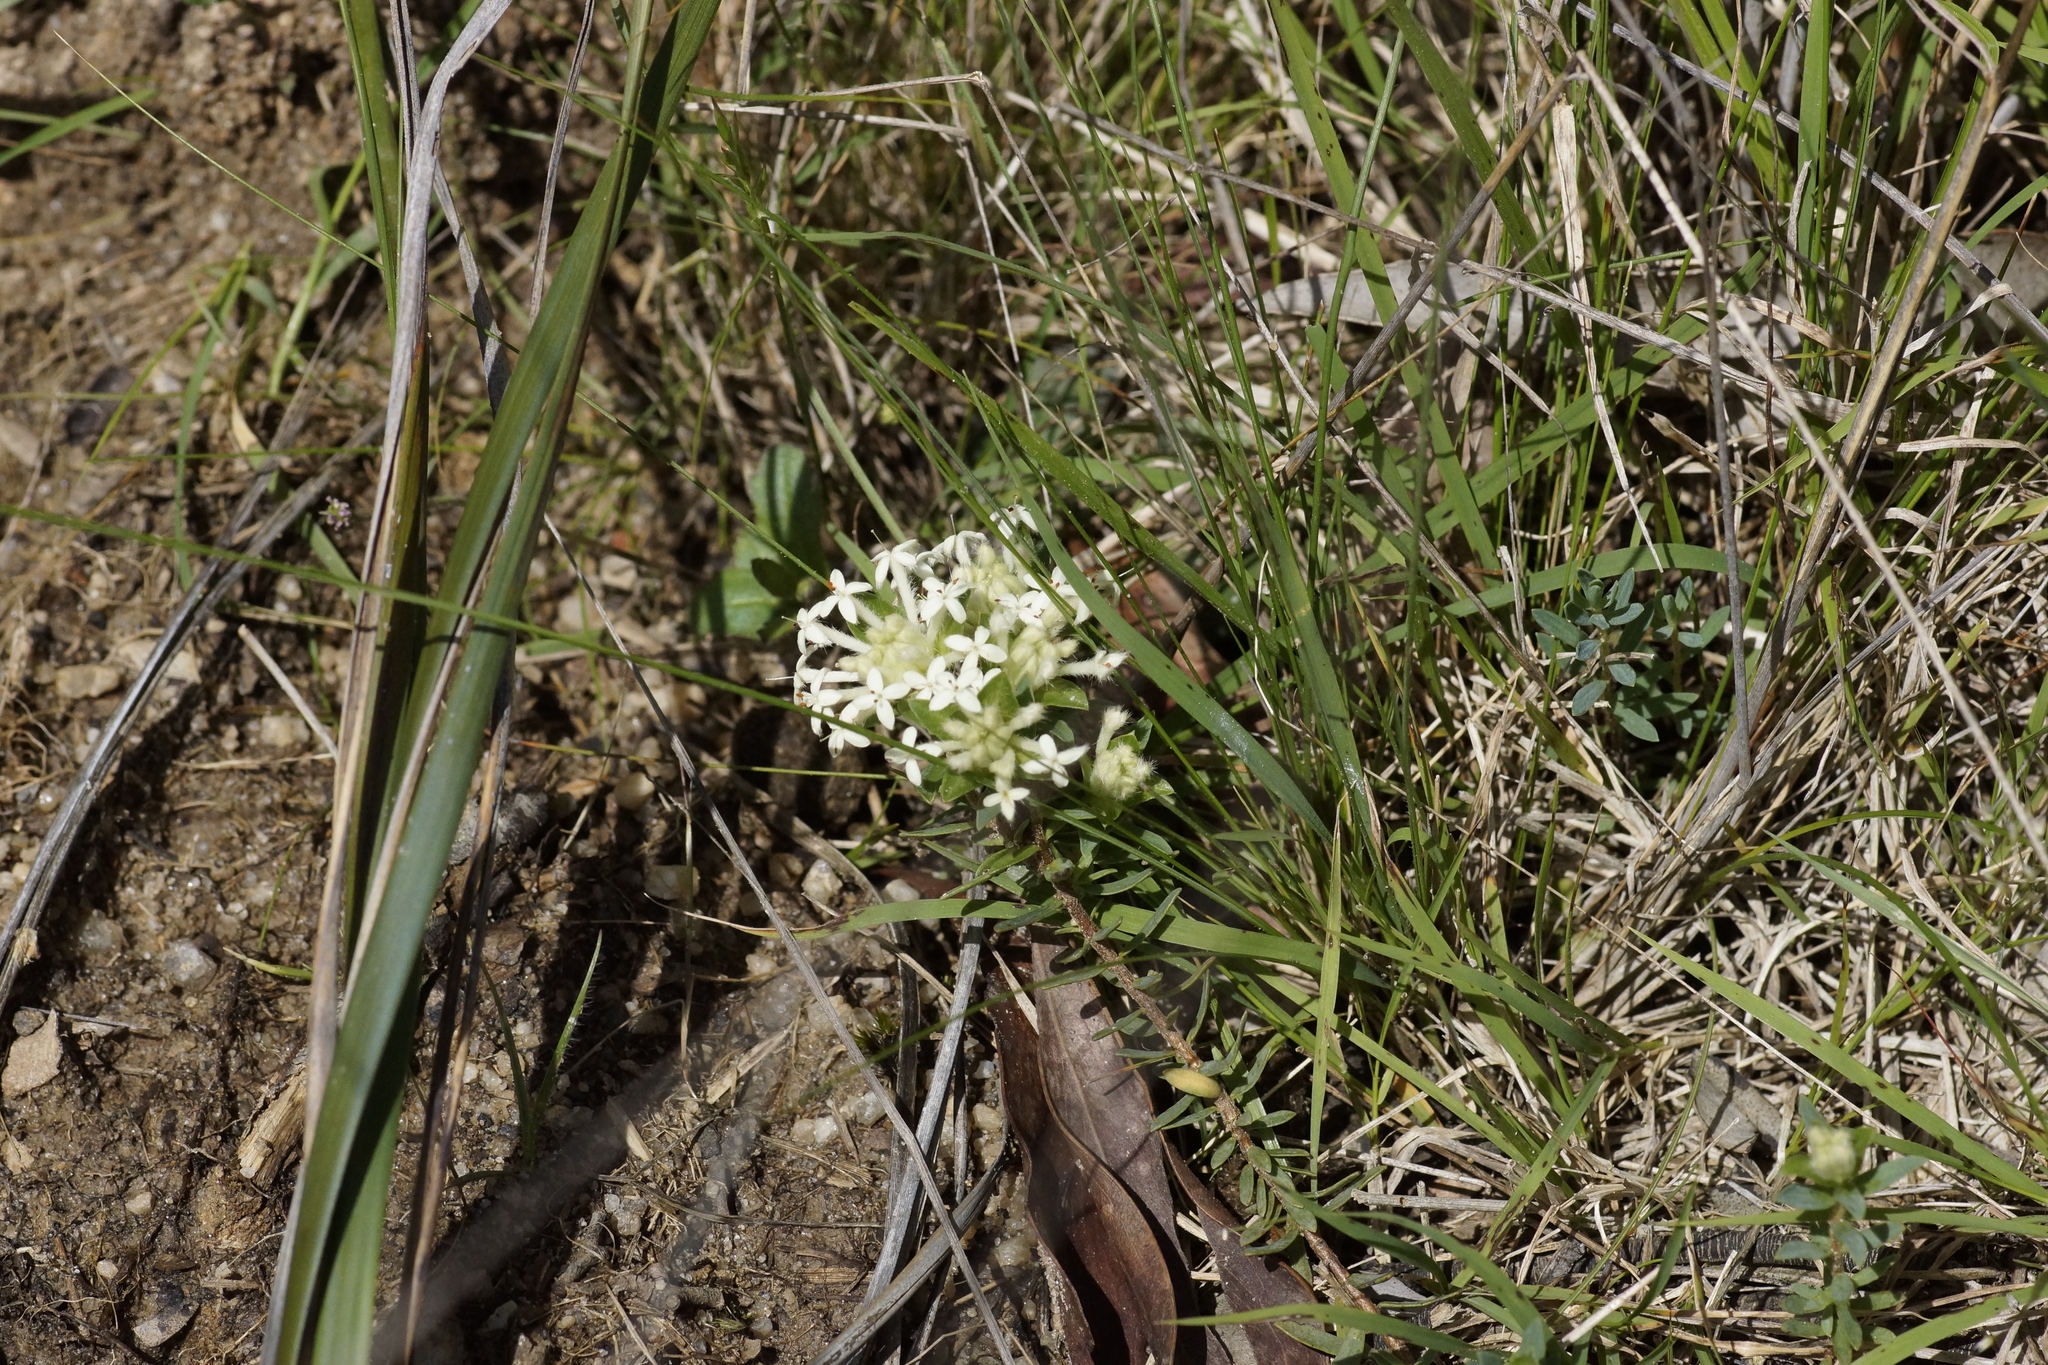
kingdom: Plantae
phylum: Tracheophyta
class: Magnoliopsida
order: Malvales
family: Thymelaeaceae
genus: Pimelea
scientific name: Pimelea humilis
